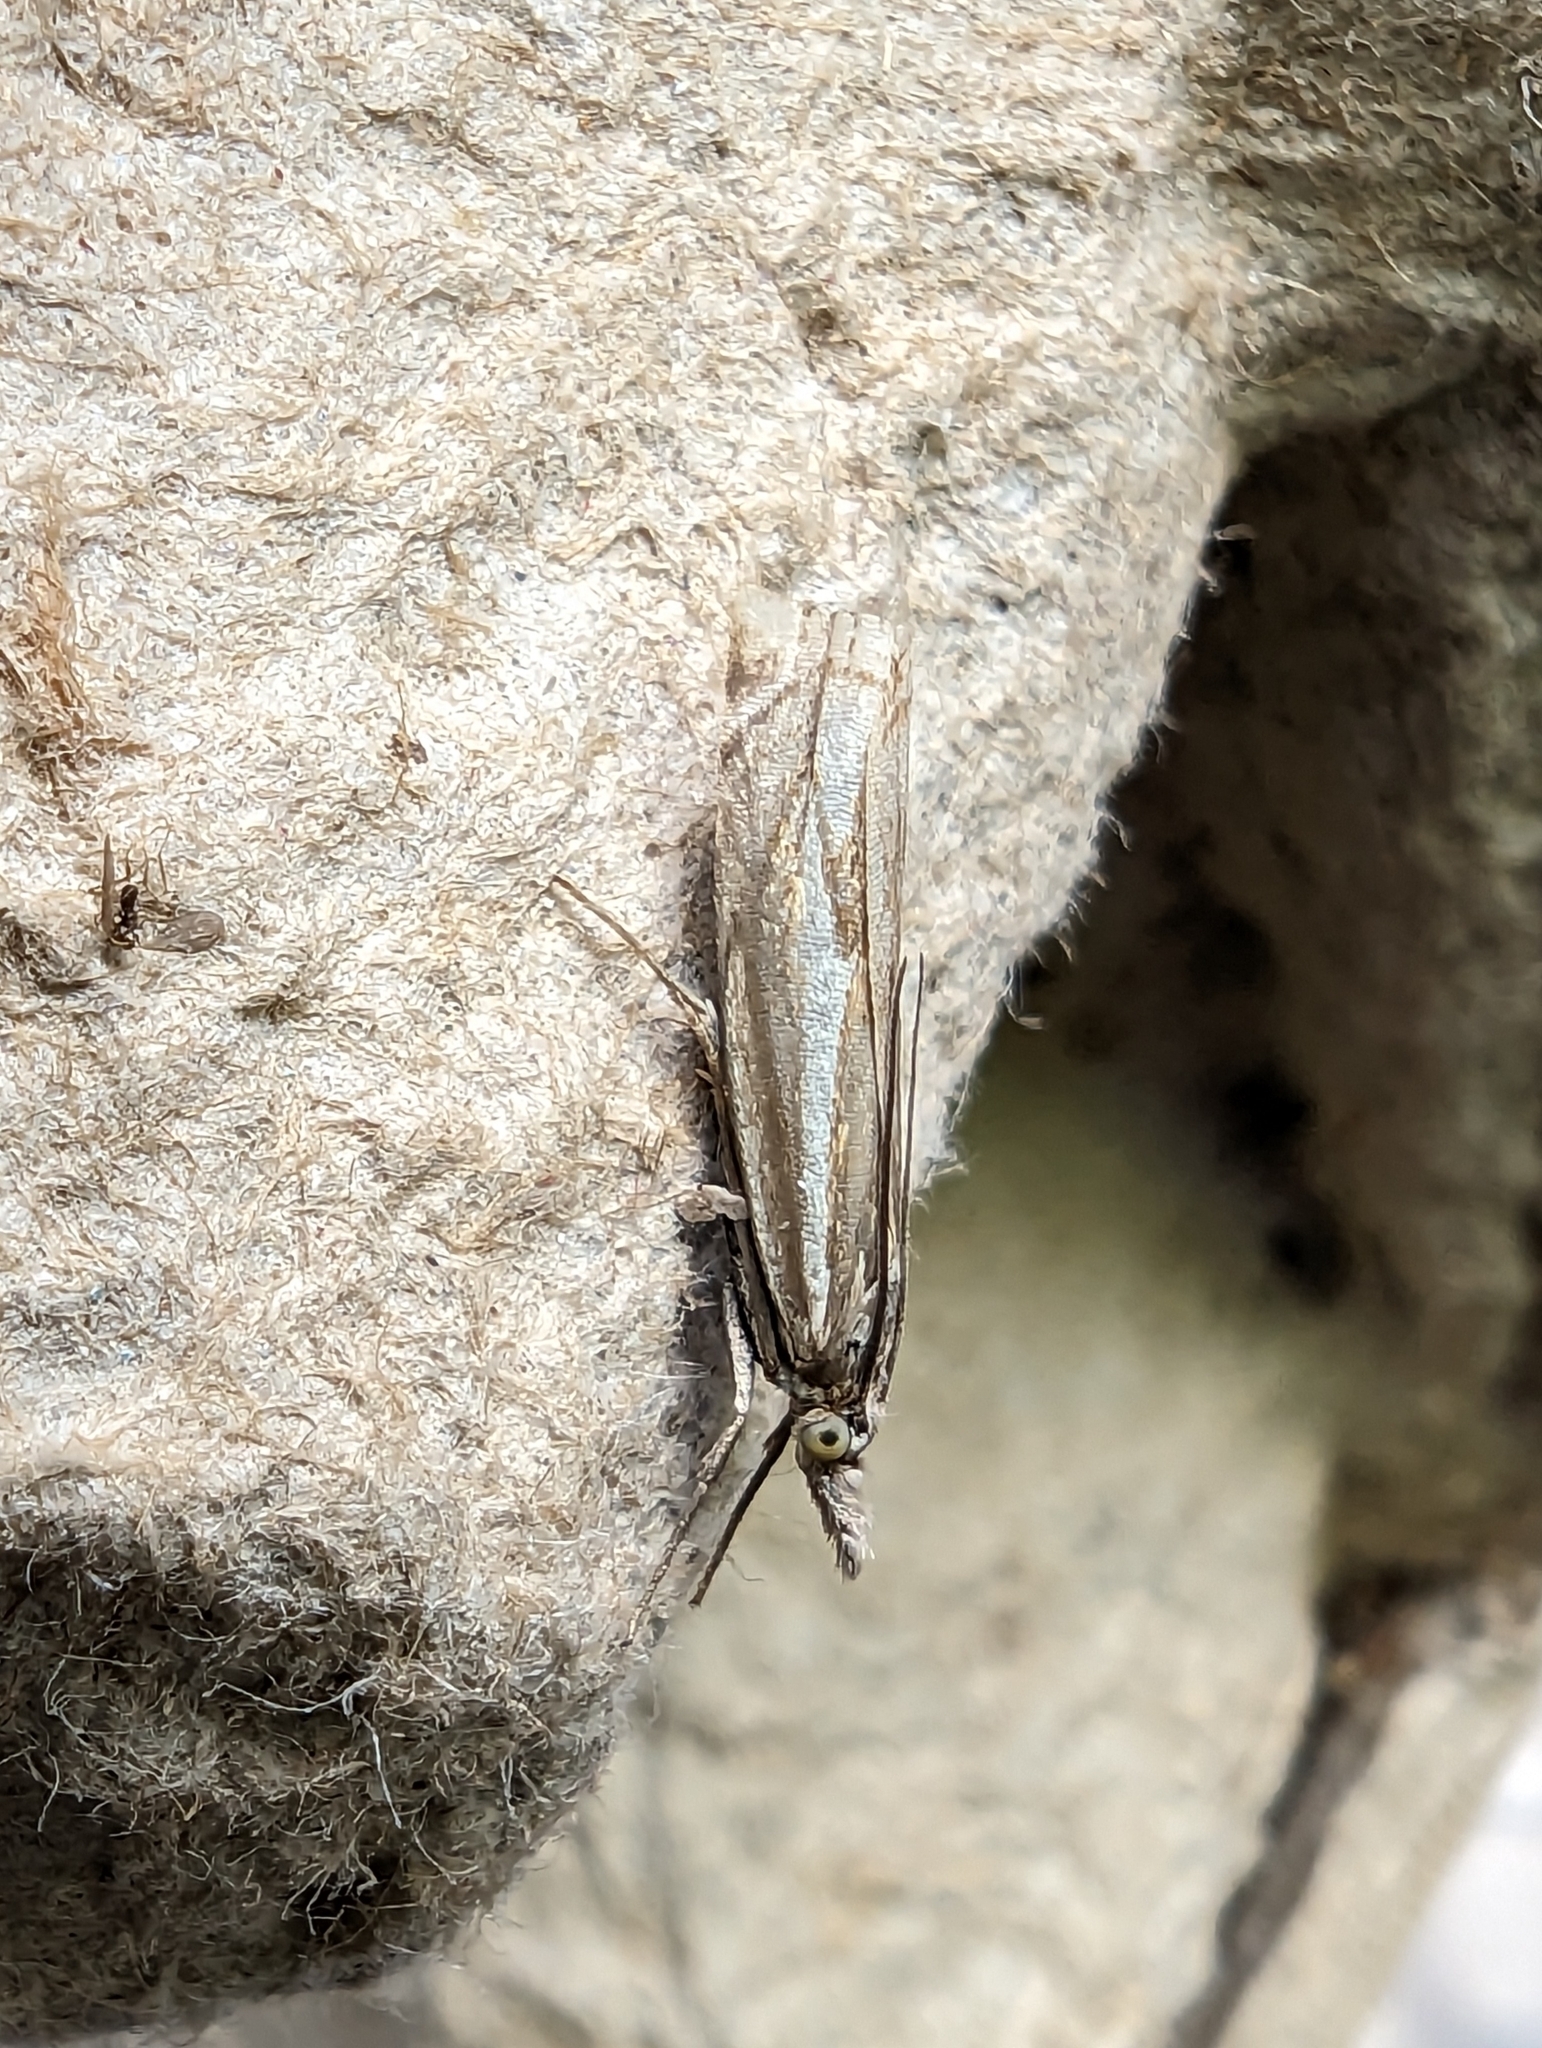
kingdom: Animalia
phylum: Arthropoda
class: Insecta
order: Lepidoptera
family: Crambidae
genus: Crambus
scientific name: Crambus nemorella
